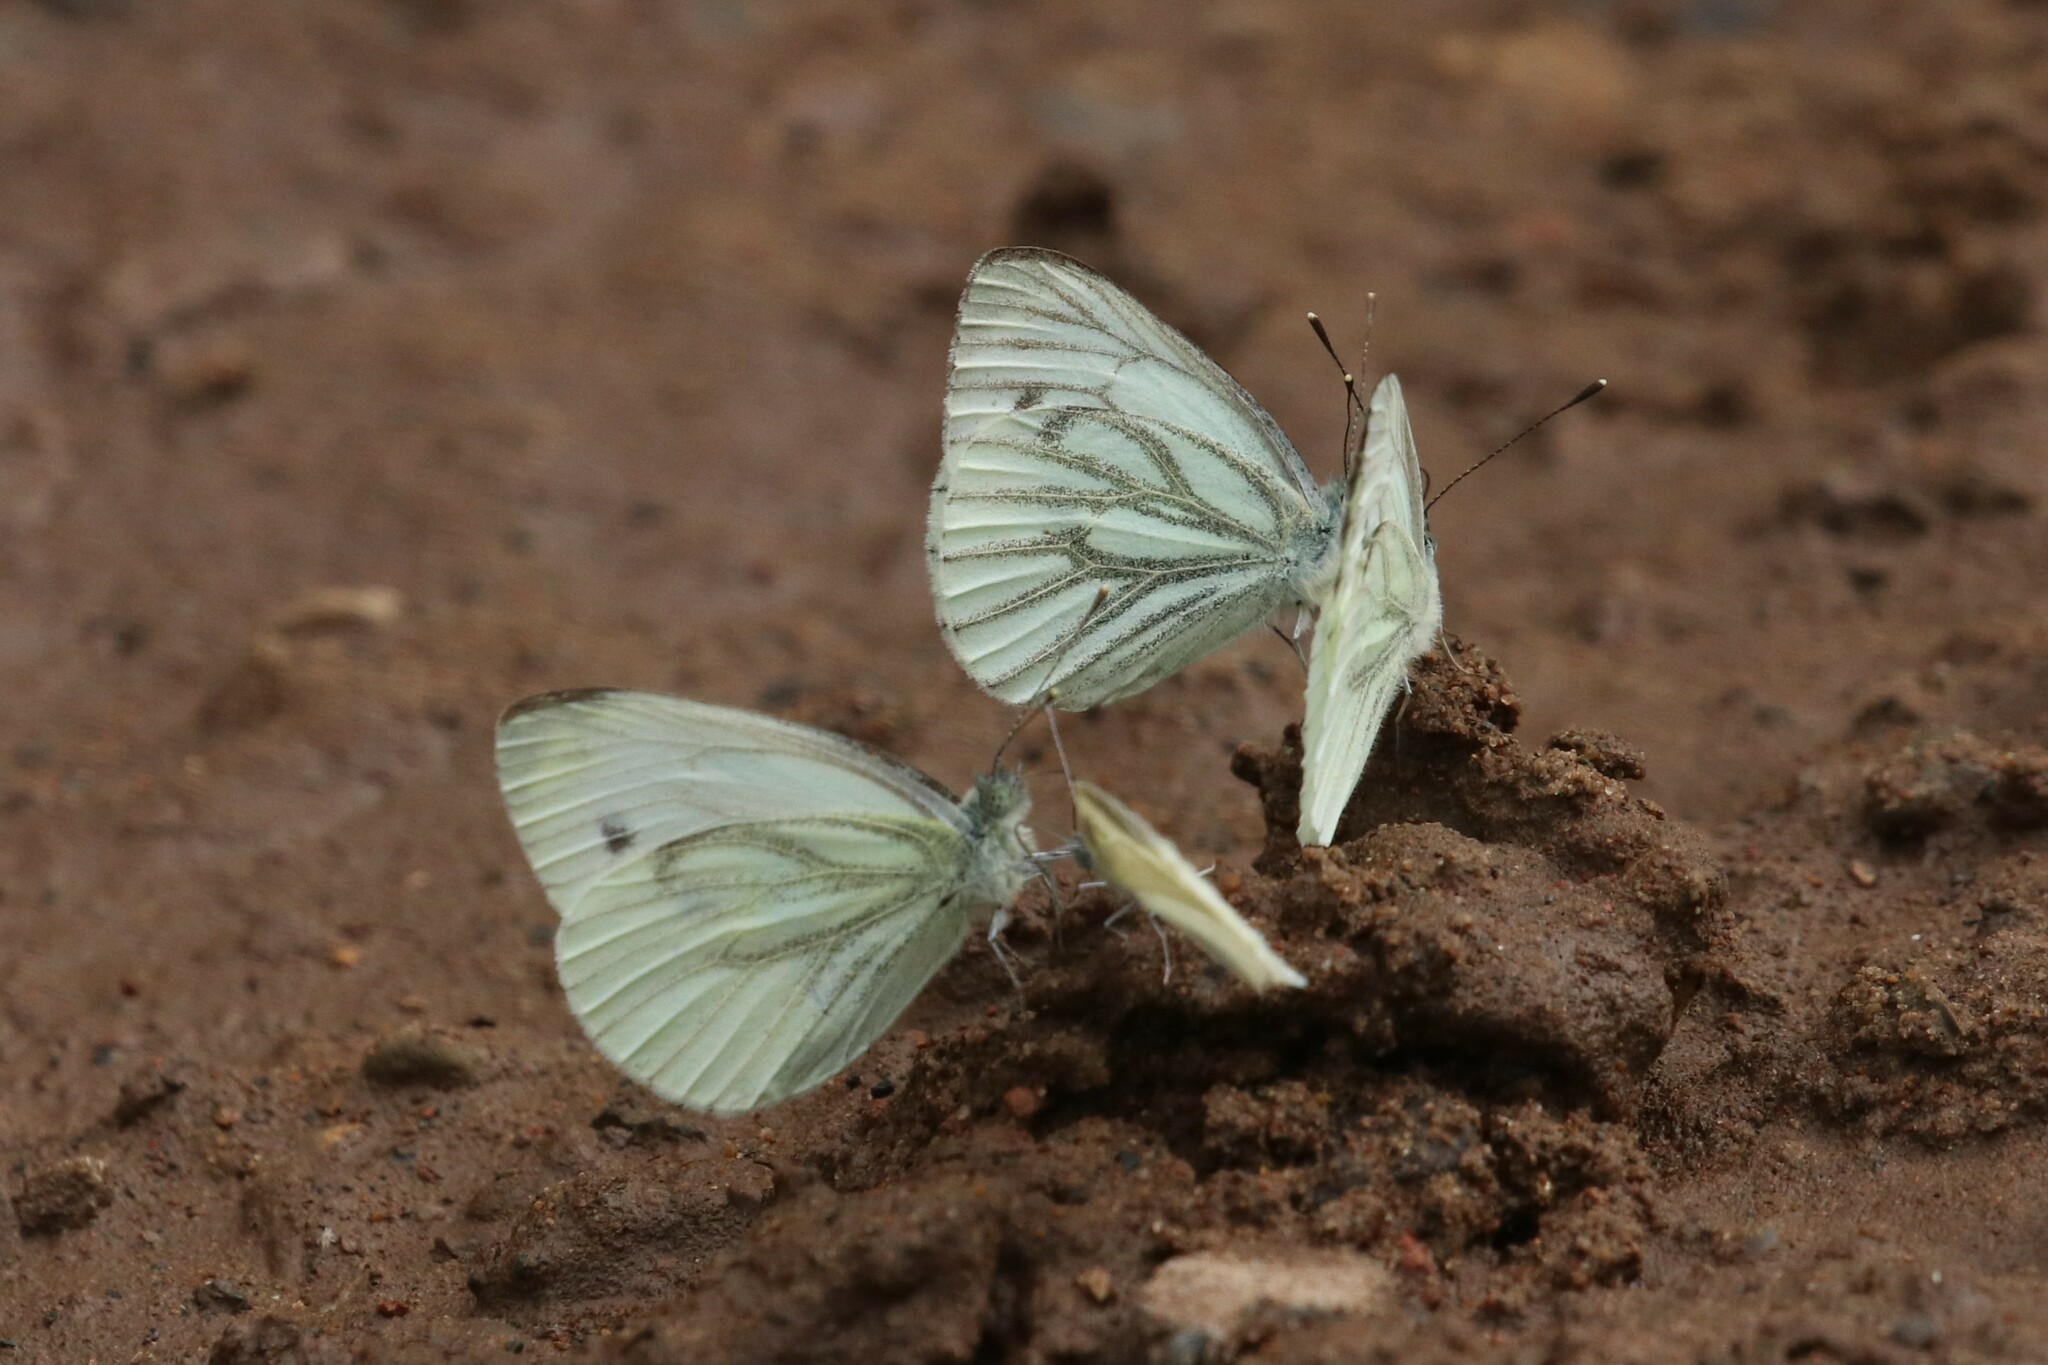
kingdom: Animalia
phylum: Arthropoda
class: Insecta
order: Lepidoptera
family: Pieridae
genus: Pieris
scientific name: Pieris napi
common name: Green-veined white
